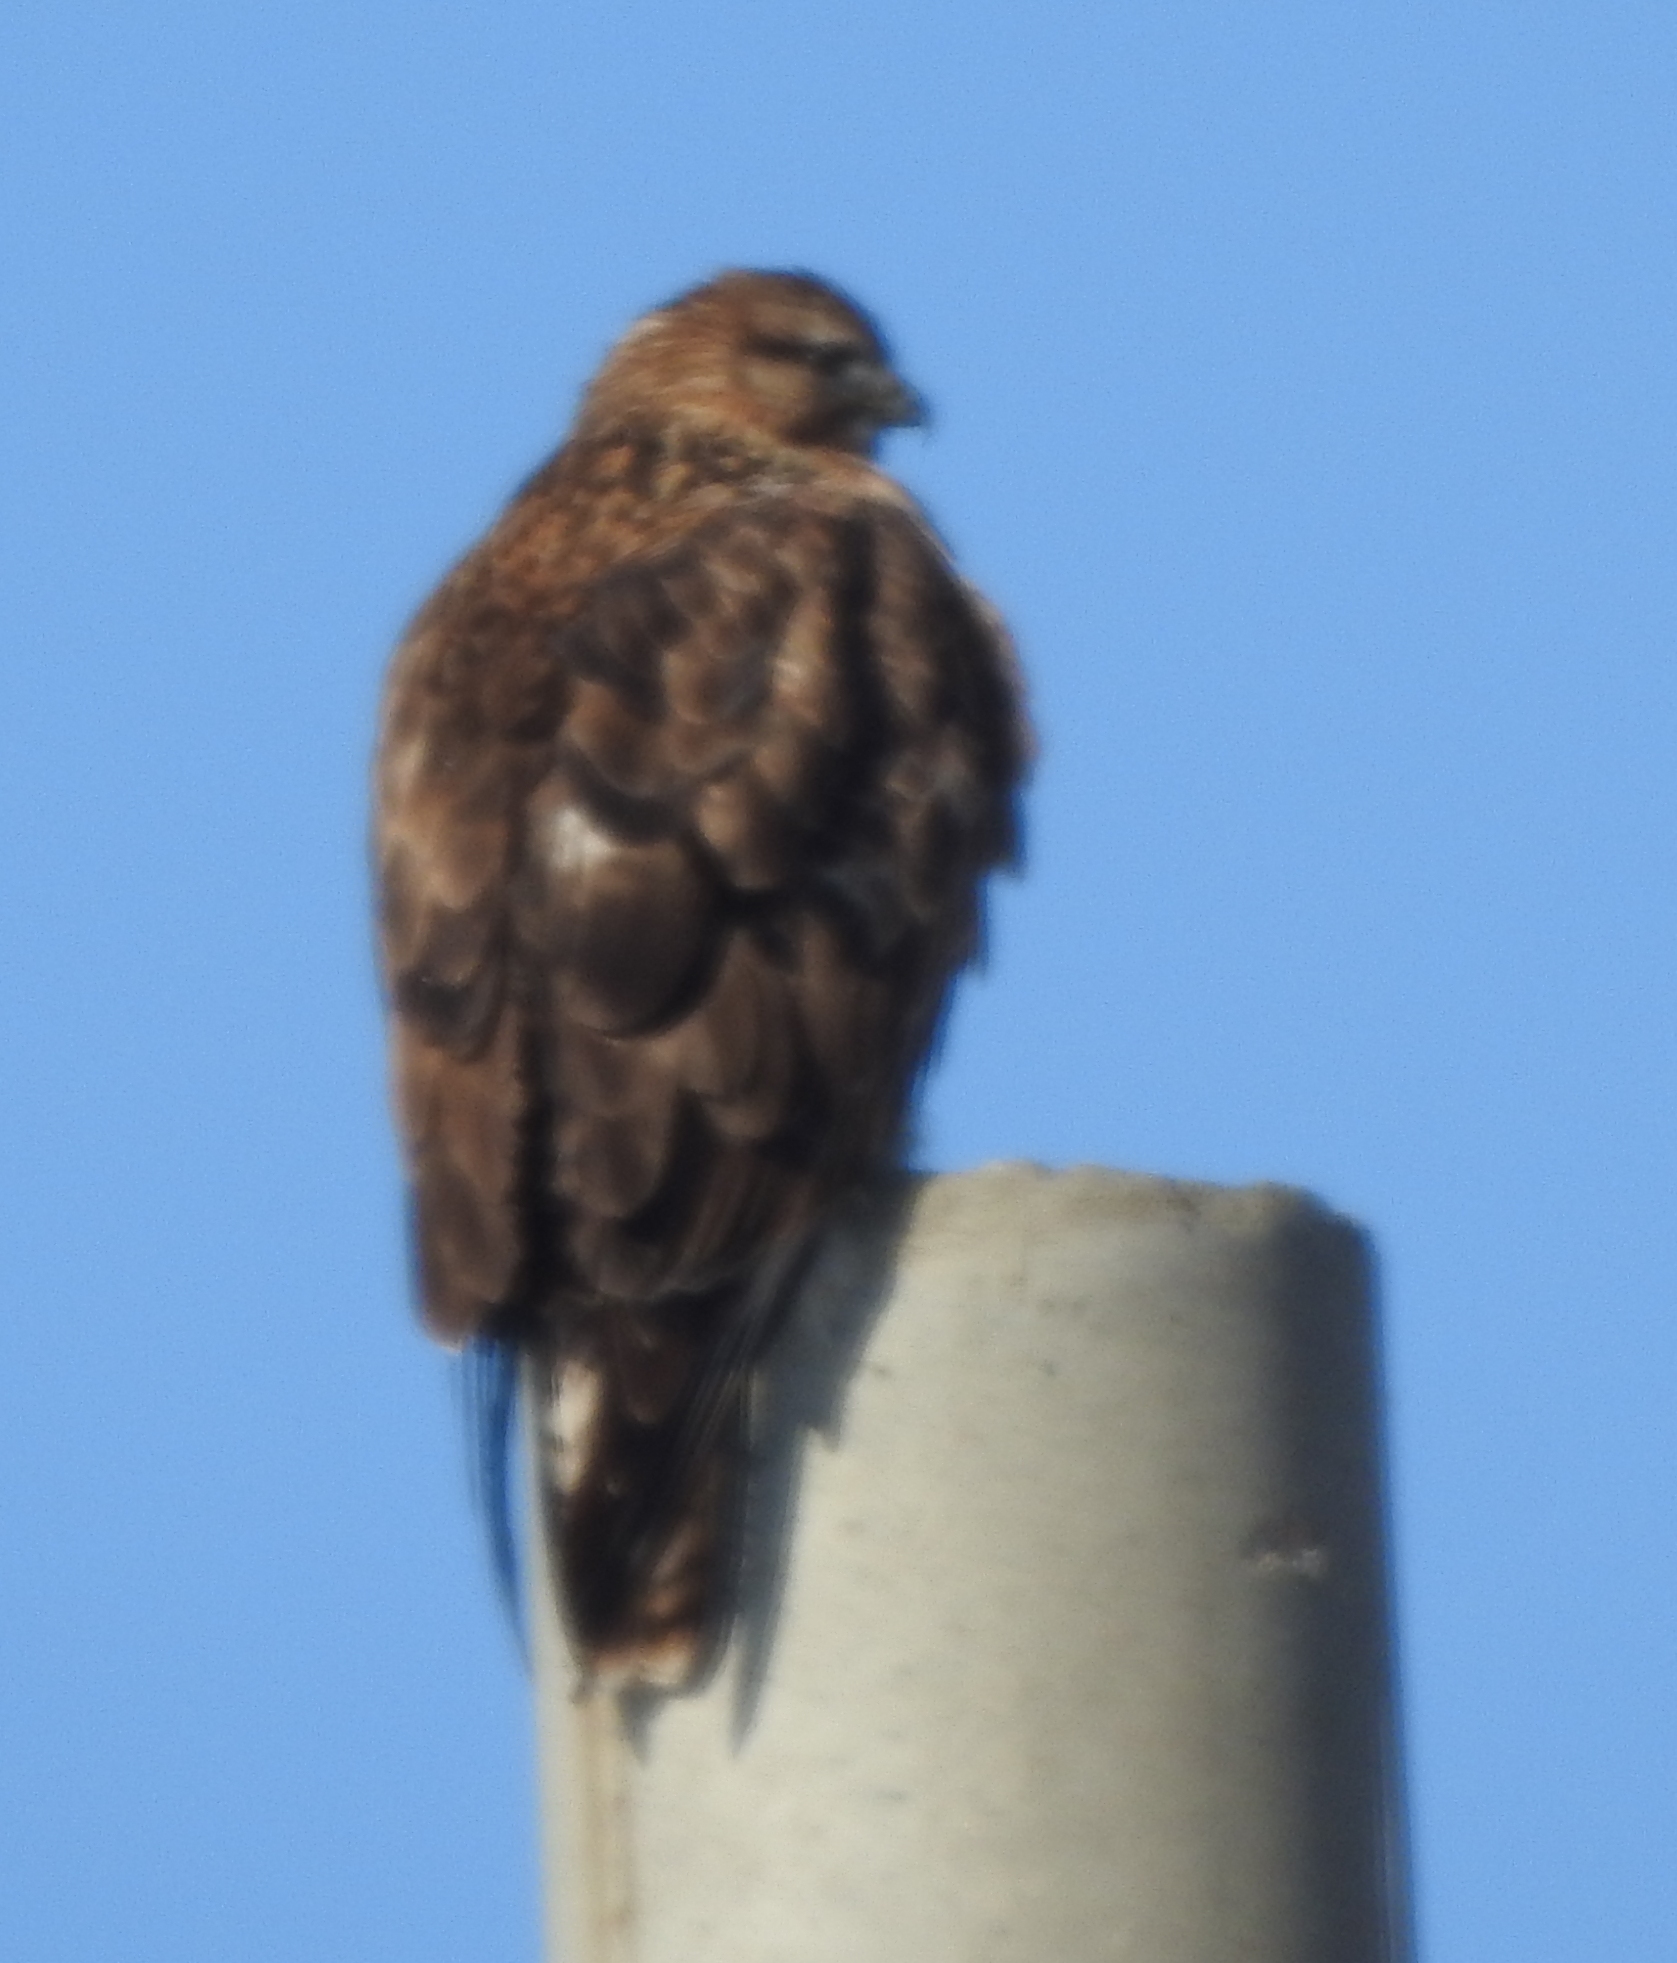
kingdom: Animalia
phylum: Chordata
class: Aves
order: Accipitriformes
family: Accipitridae
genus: Buteo
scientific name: Buteo hemilasius
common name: Upland buzzard
